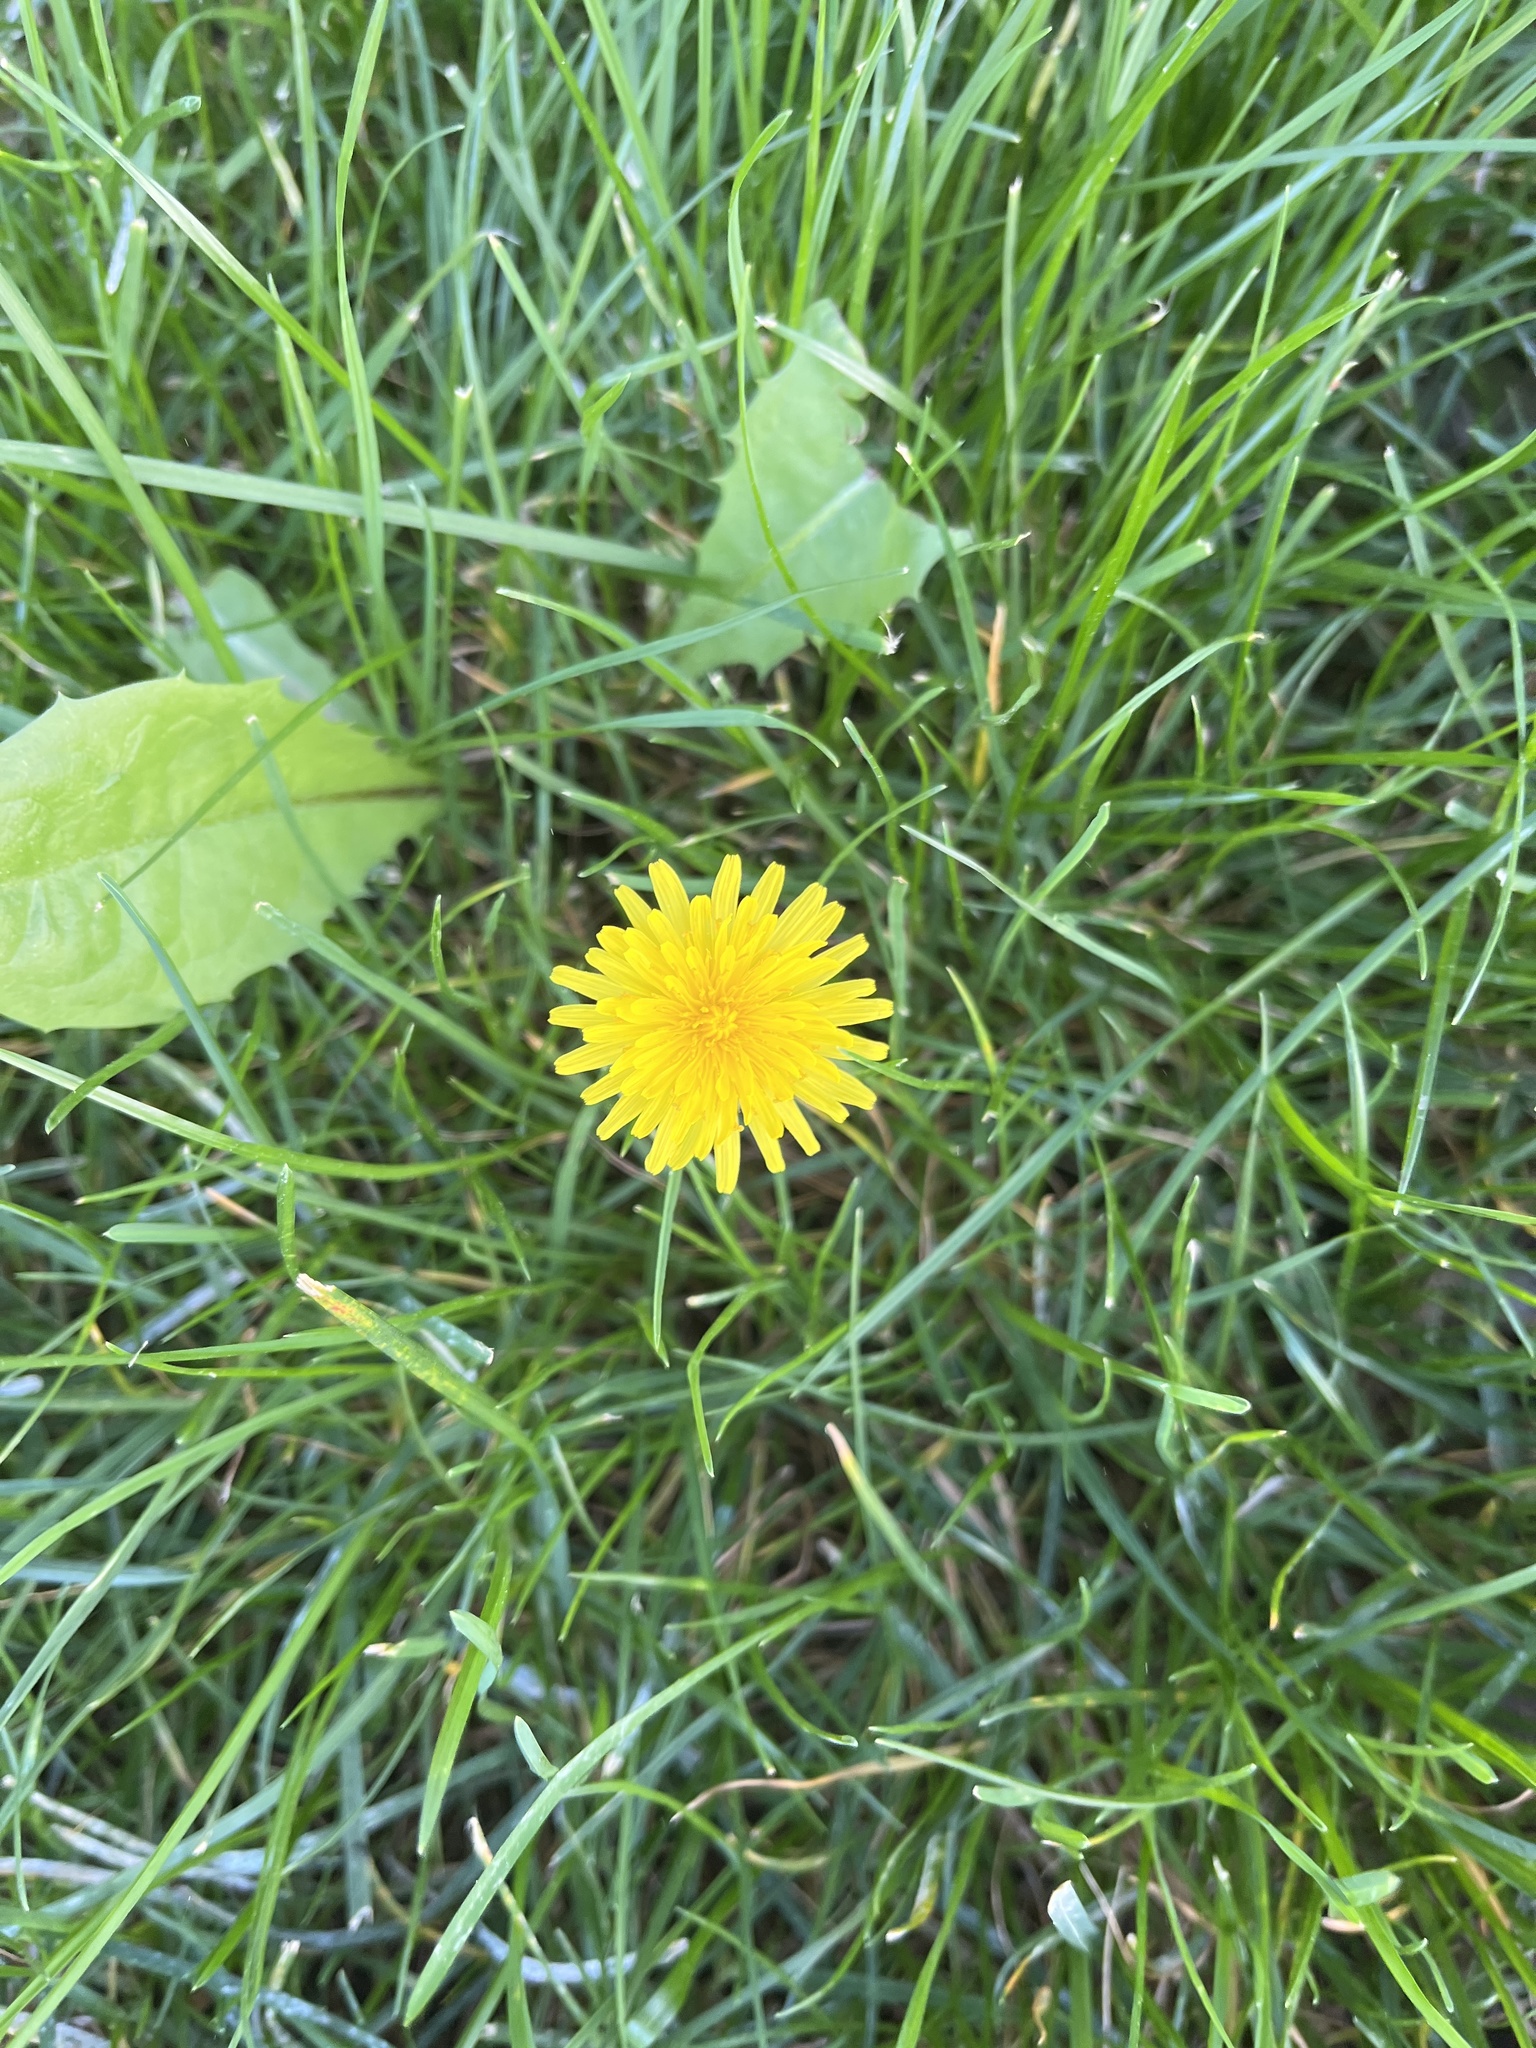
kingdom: Plantae
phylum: Tracheophyta
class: Magnoliopsida
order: Asterales
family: Asteraceae
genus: Taraxacum
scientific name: Taraxacum officinale
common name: Common dandelion
